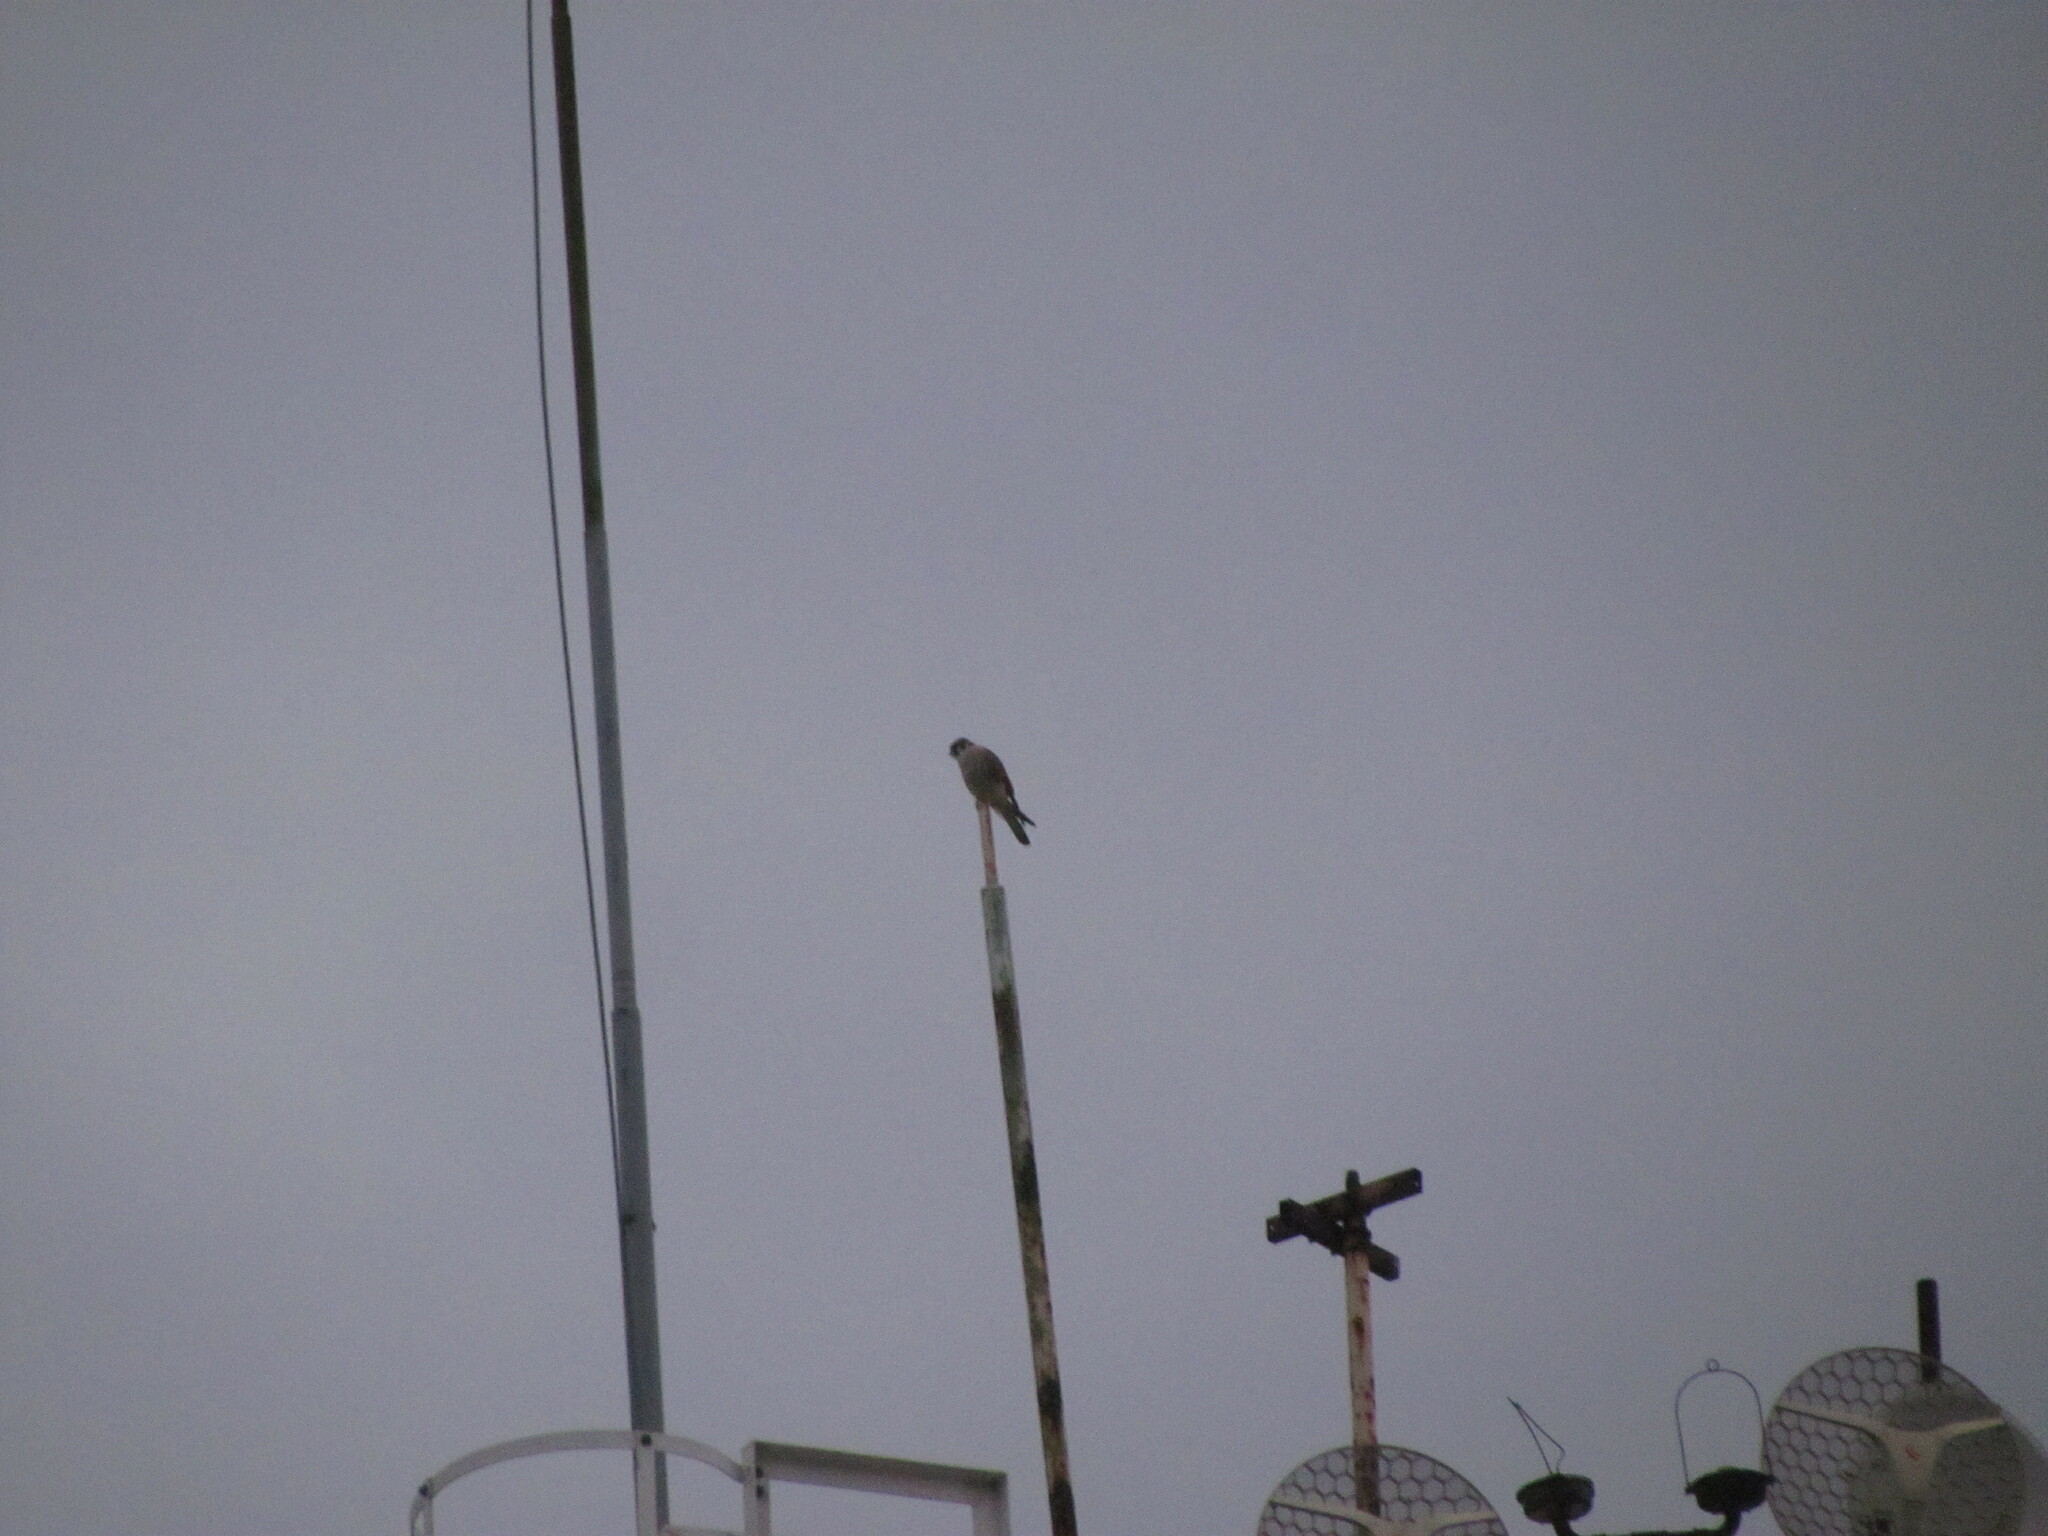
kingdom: Animalia
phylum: Chordata
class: Aves
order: Falconiformes
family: Falconidae
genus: Falco
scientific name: Falco sparverius
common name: American kestrel
